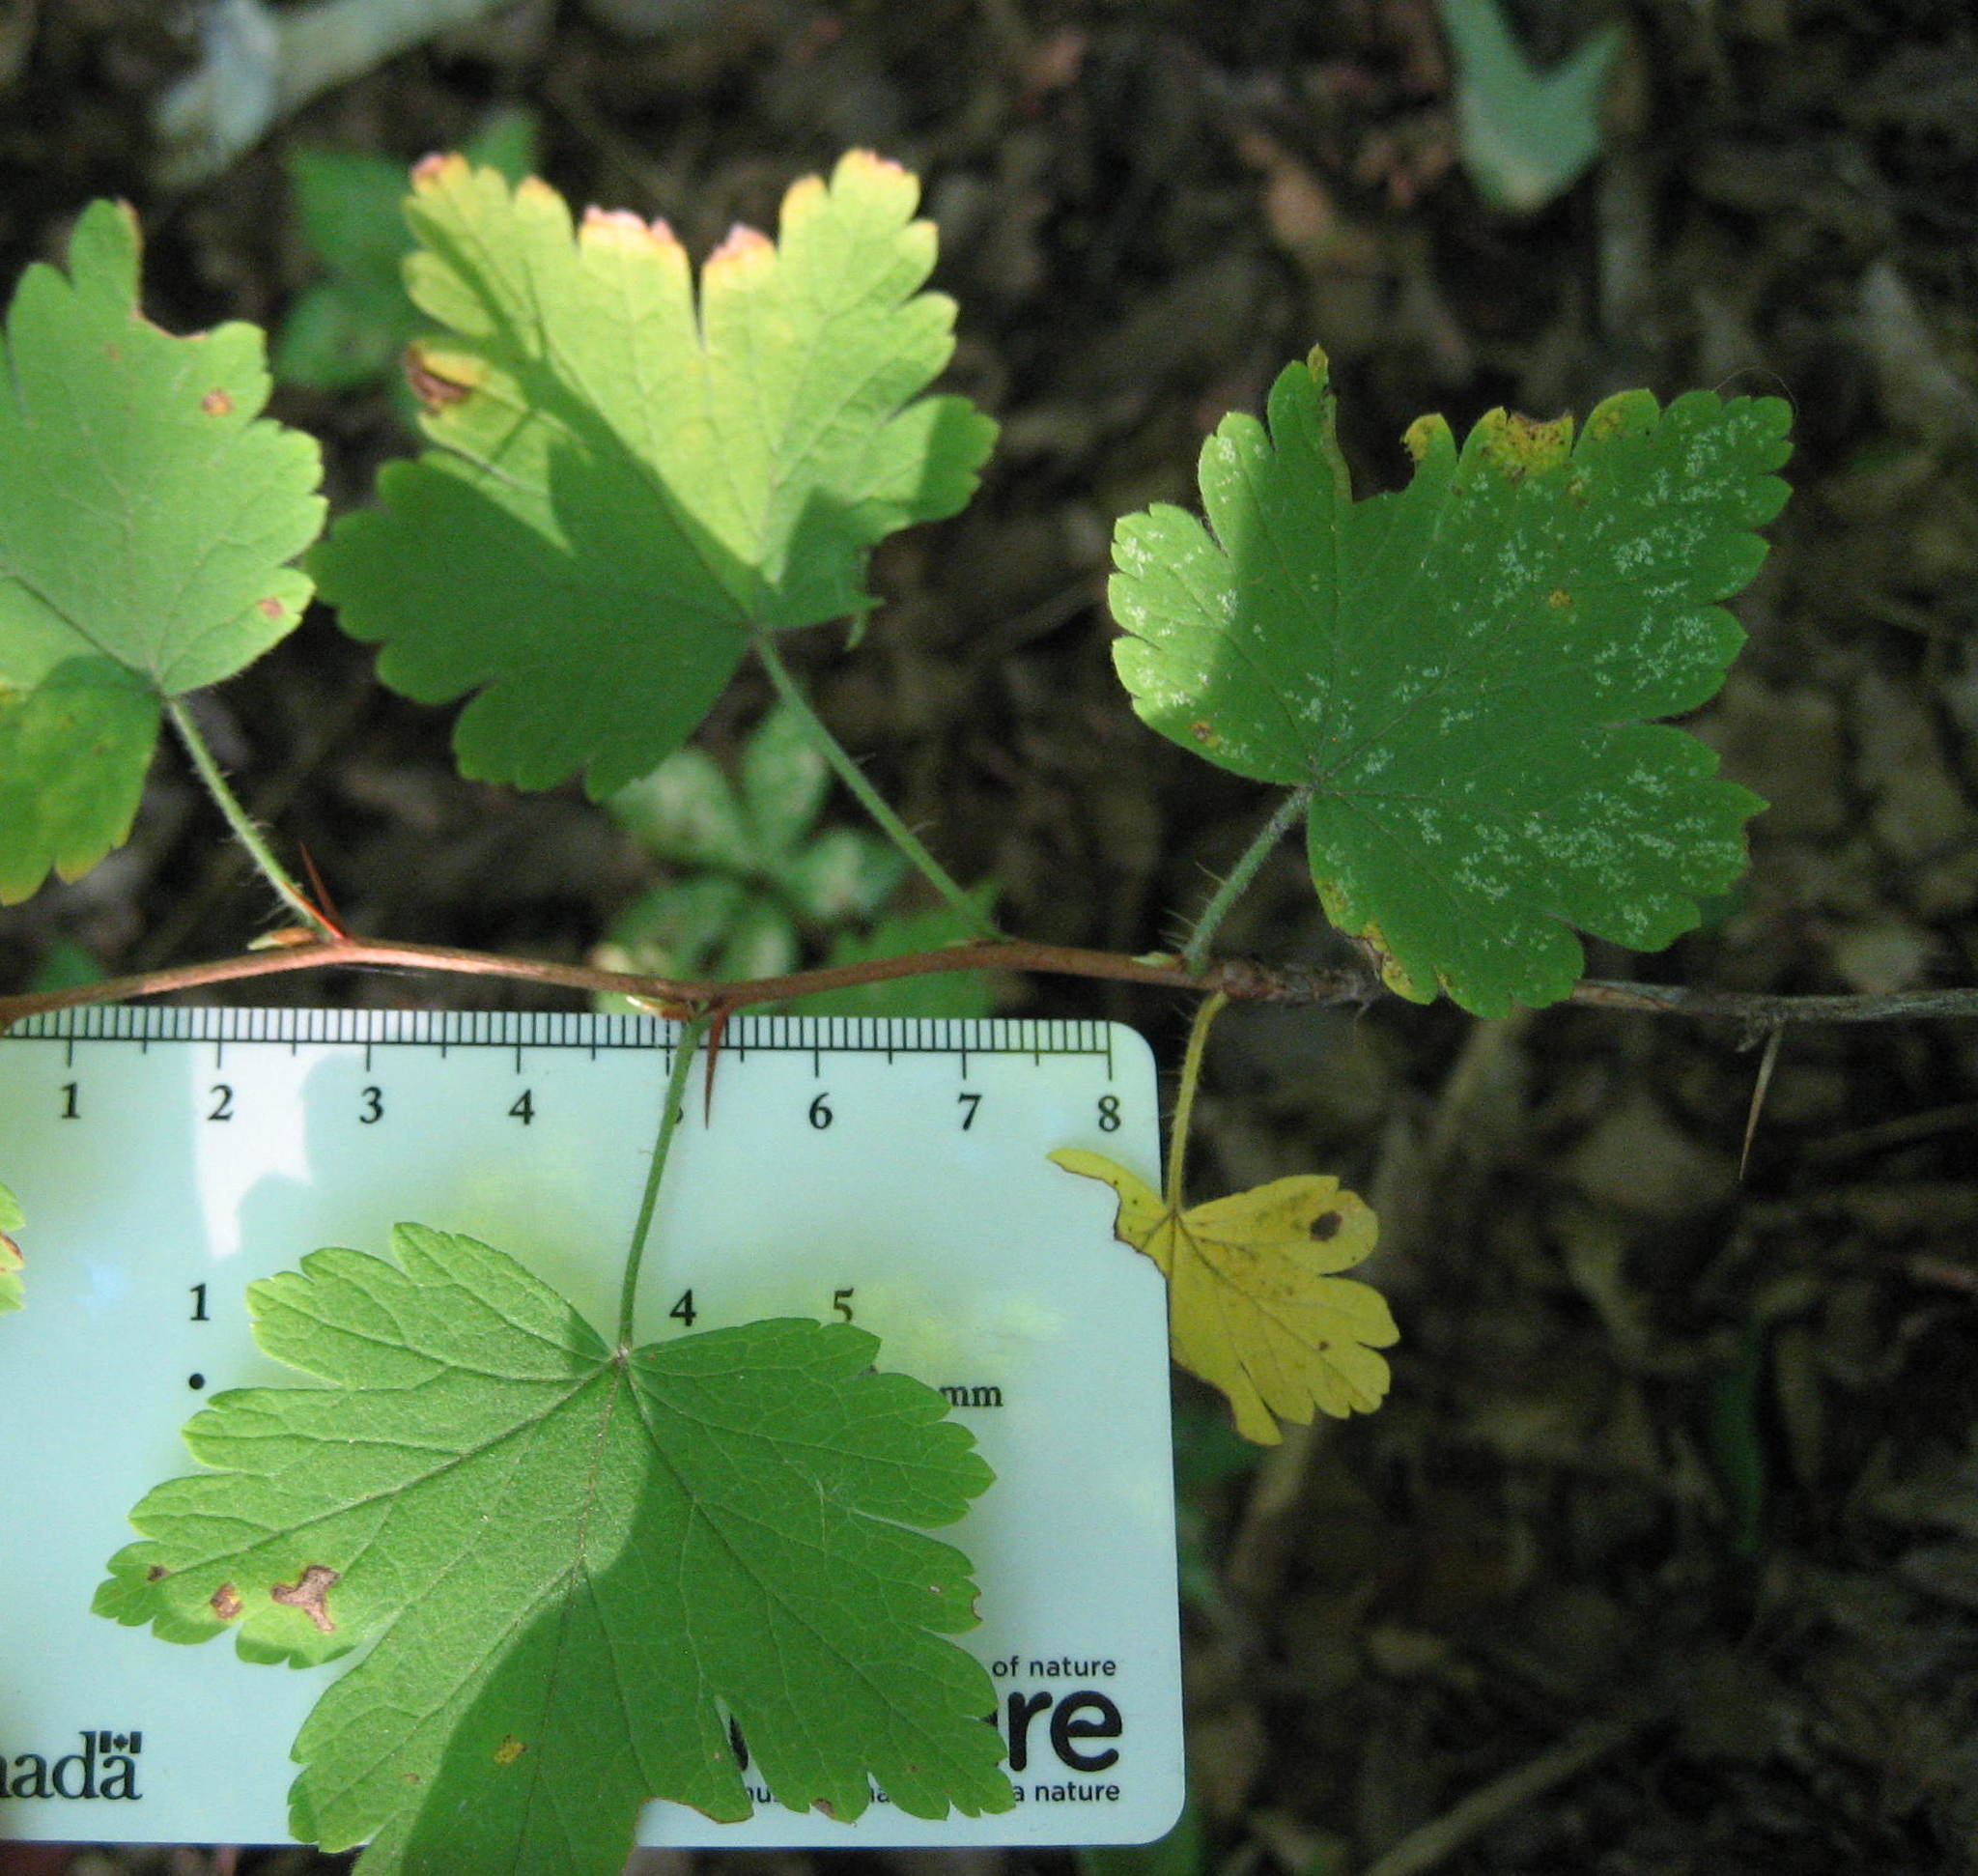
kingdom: Plantae
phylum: Tracheophyta
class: Magnoliopsida
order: Saxifragales
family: Grossulariaceae
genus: Ribes
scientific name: Ribes cynosbati
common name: American gooseberry
